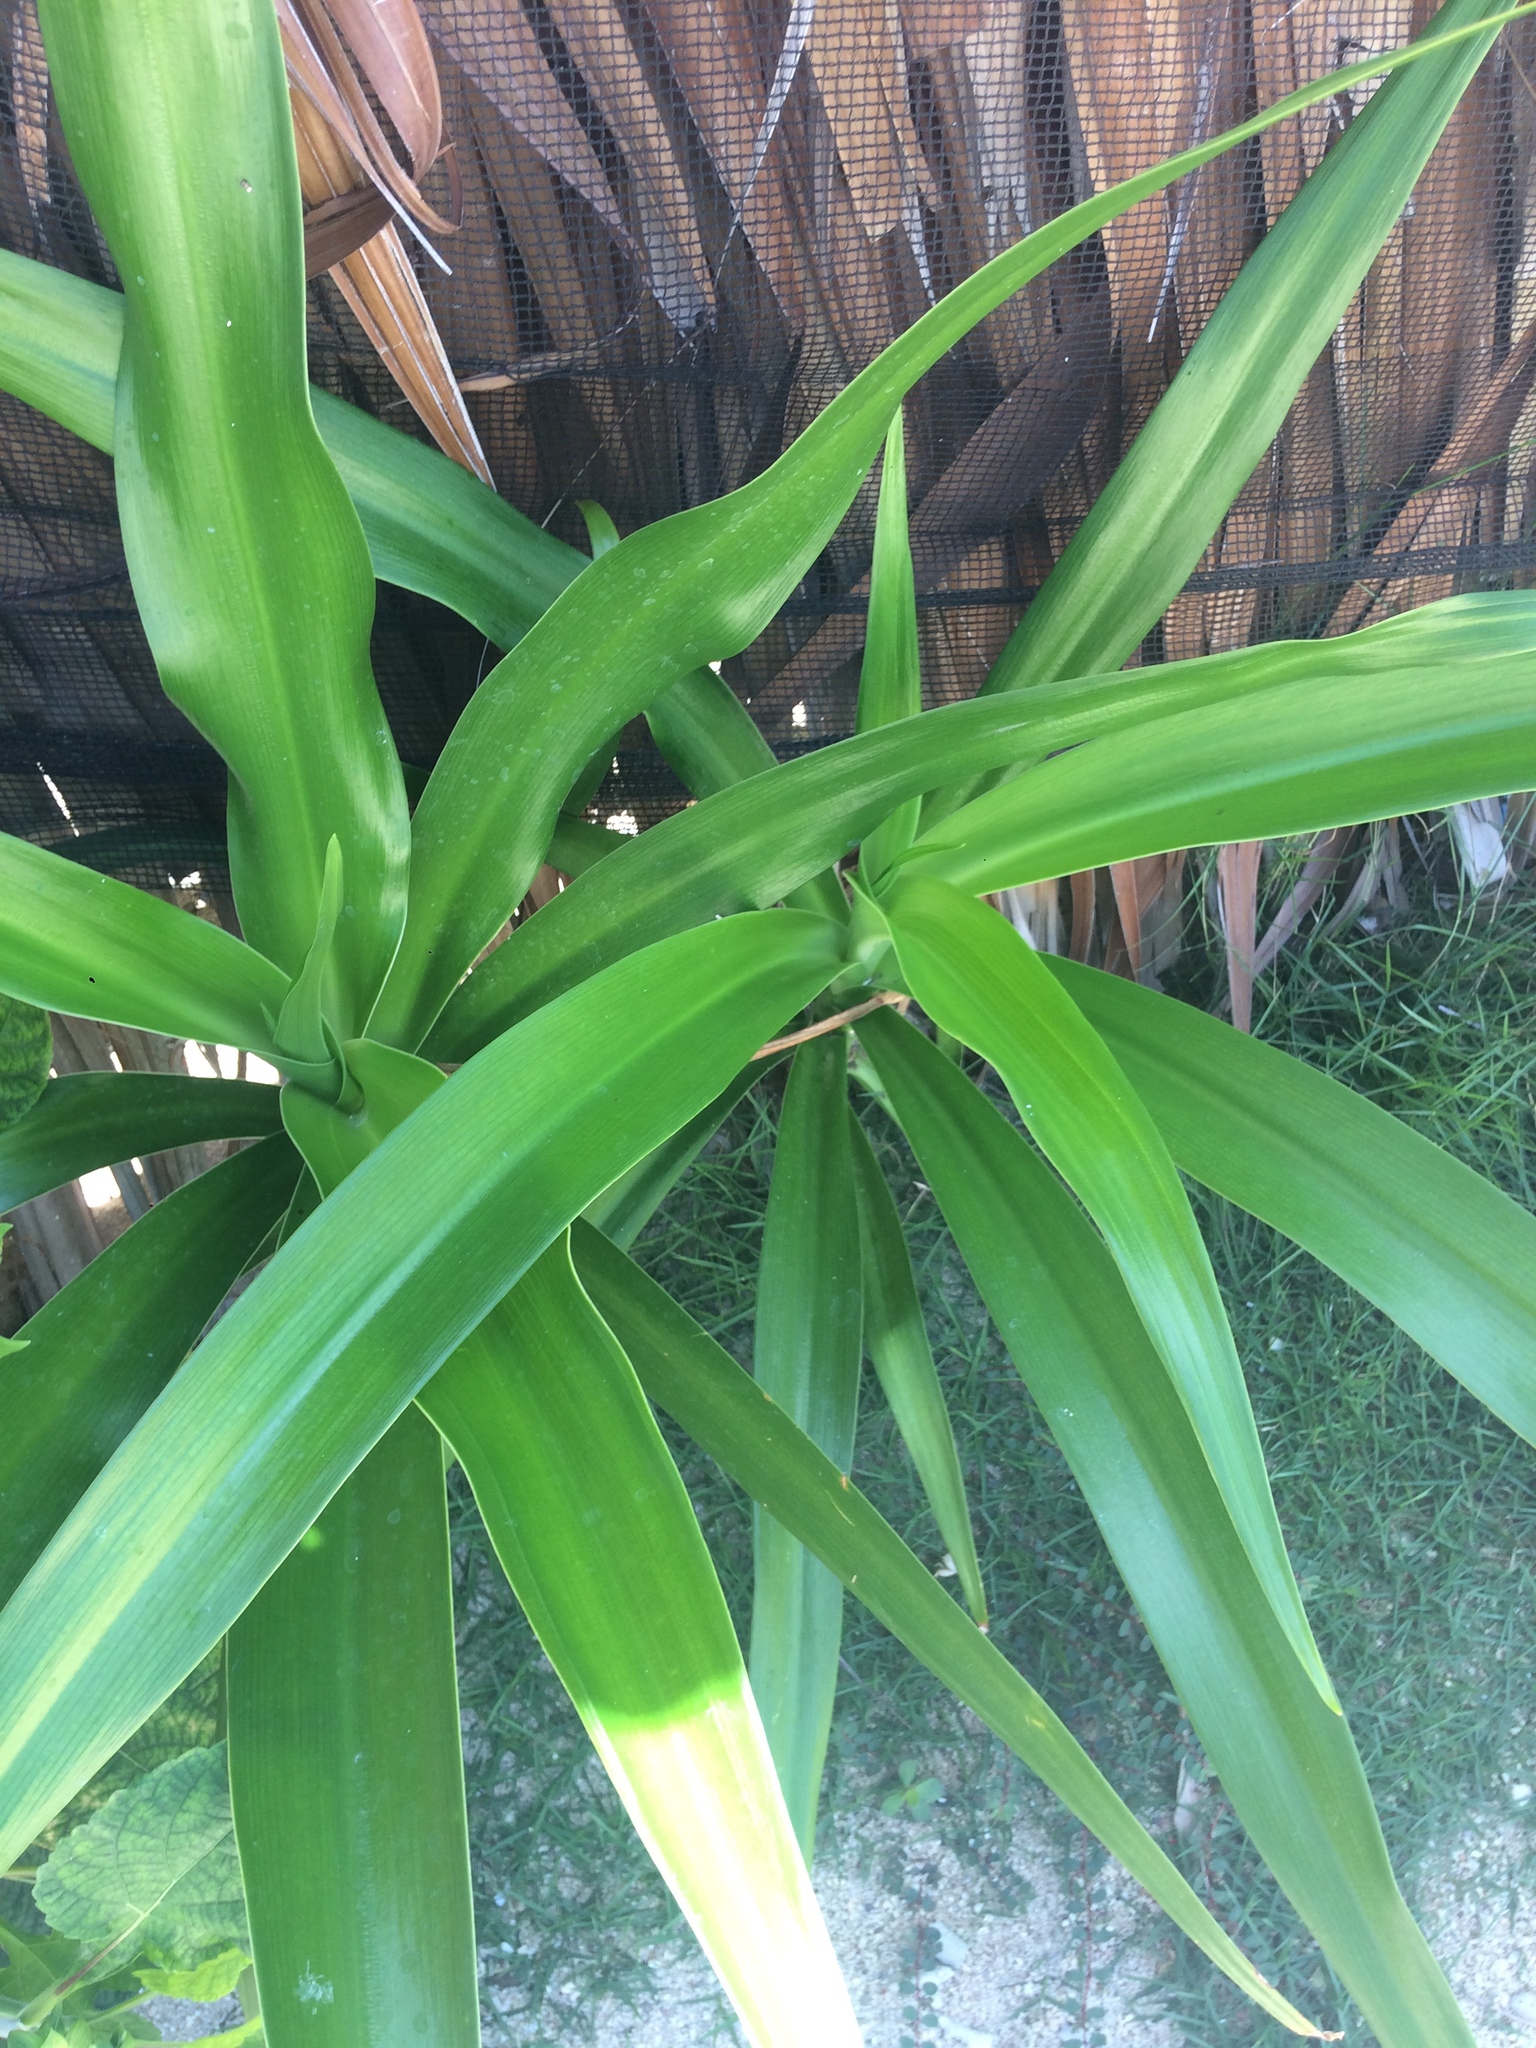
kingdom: Plantae
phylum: Tracheophyta
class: Liliopsida
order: Asparagales
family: Amaryllidaceae
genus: Agapanthus
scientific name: Agapanthus praecox
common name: African-lily
